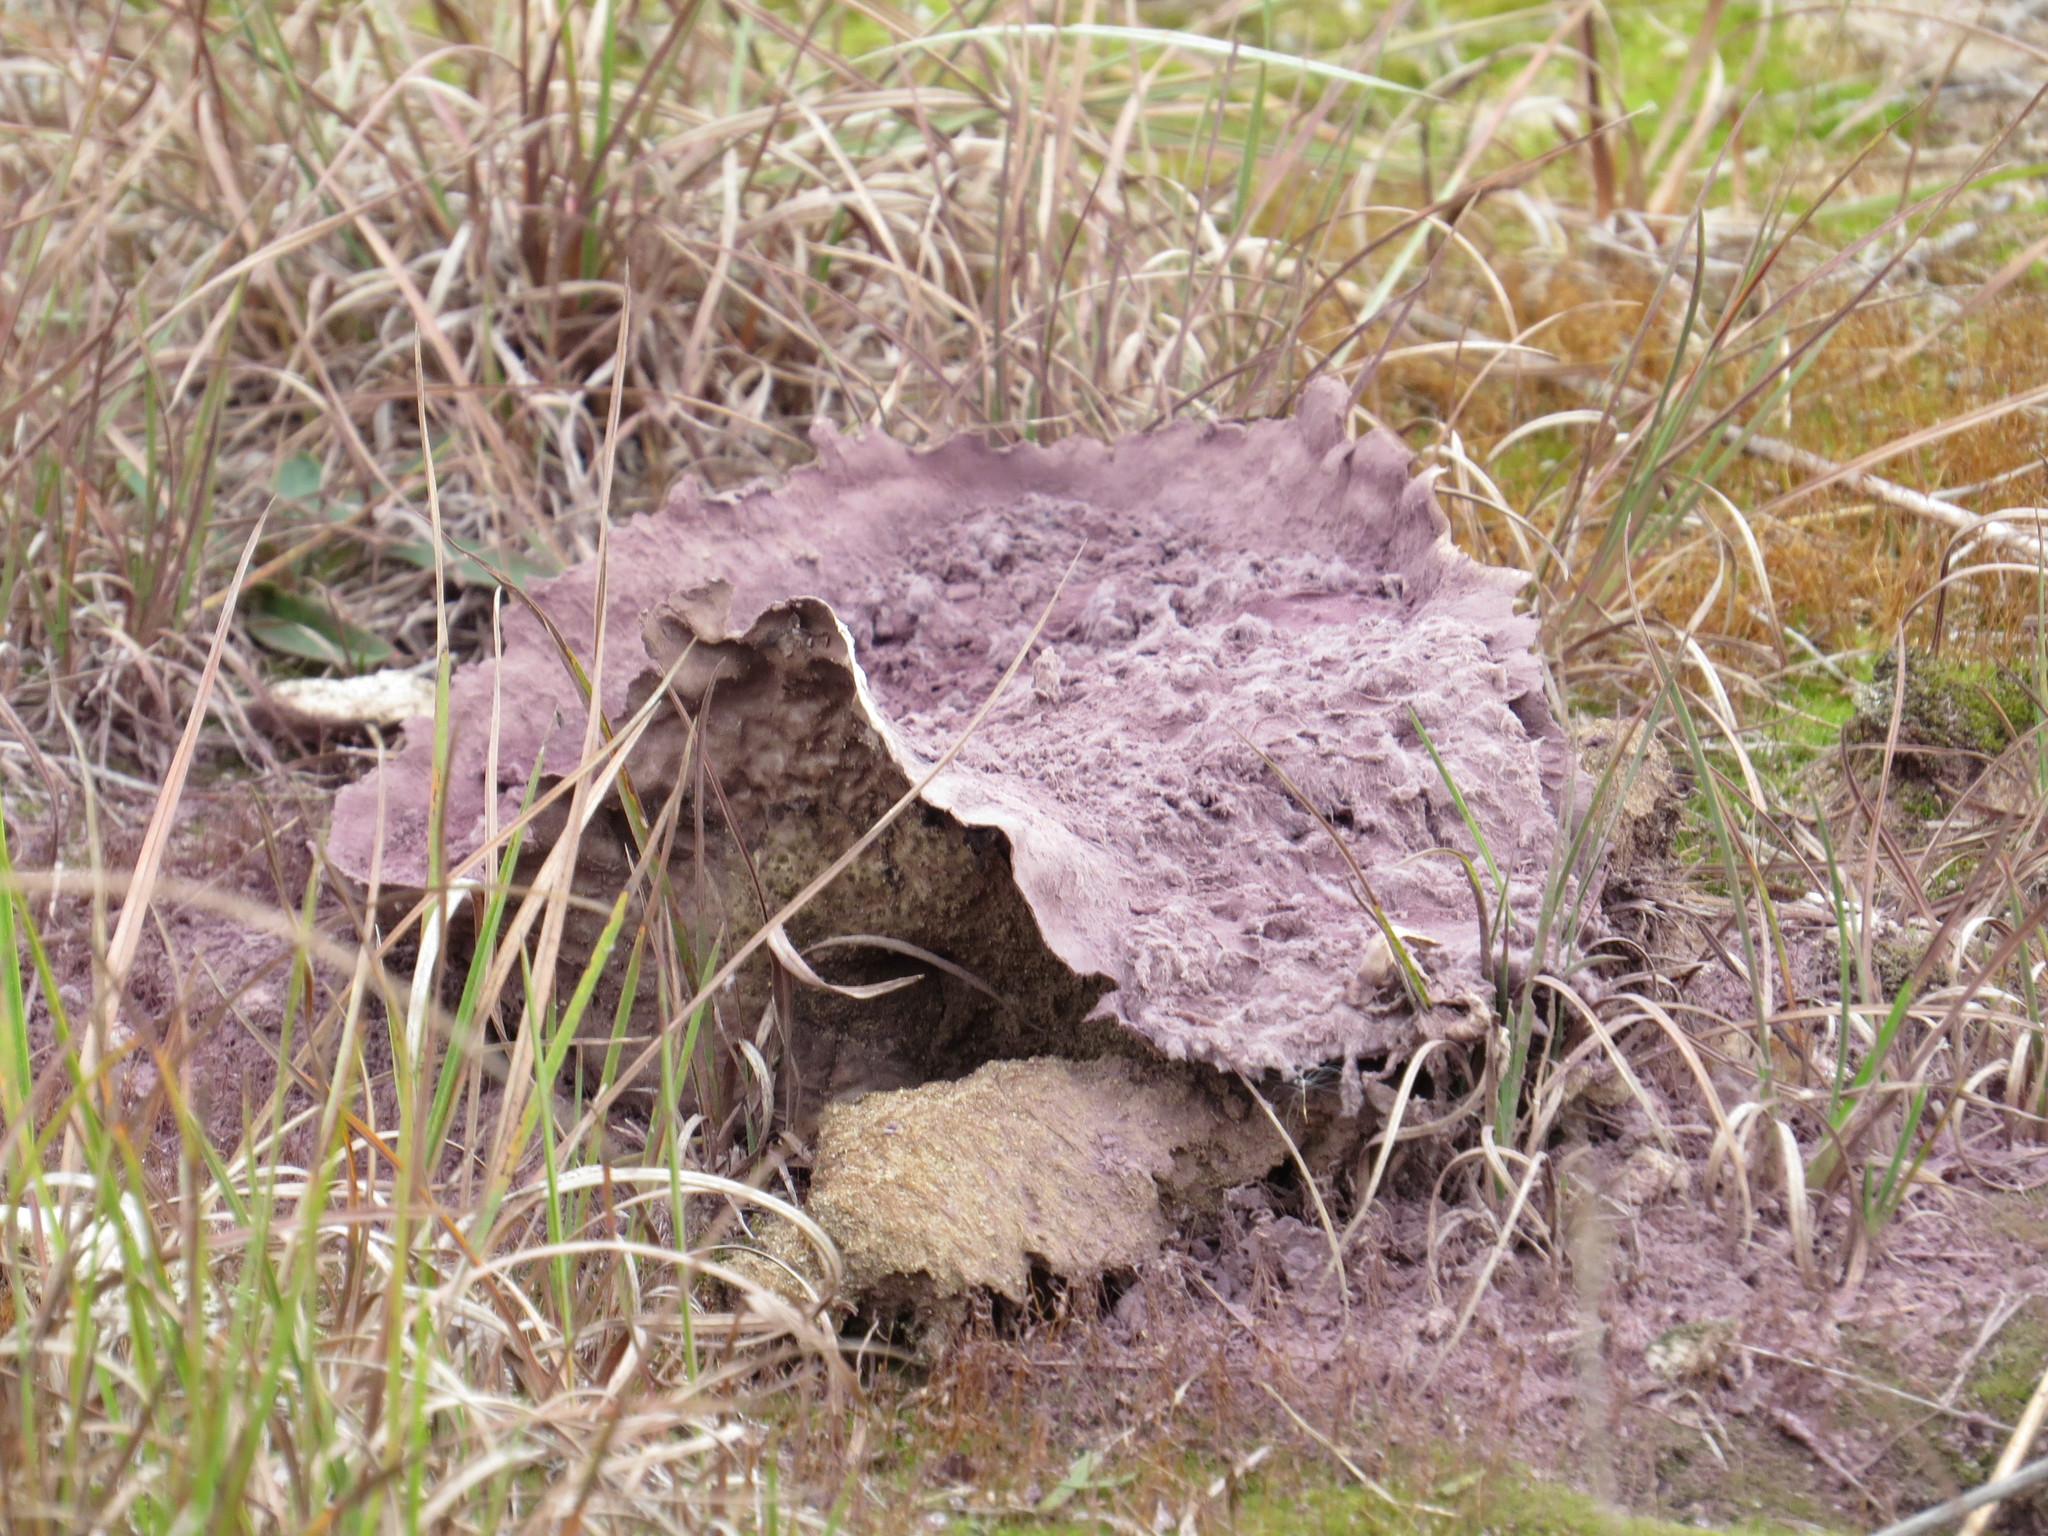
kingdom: Fungi
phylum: Basidiomycota
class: Agaricomycetes
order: Agaricales
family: Lycoperdaceae
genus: Calvatia
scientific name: Calvatia cyathiformis
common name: Purple-spored puffball
